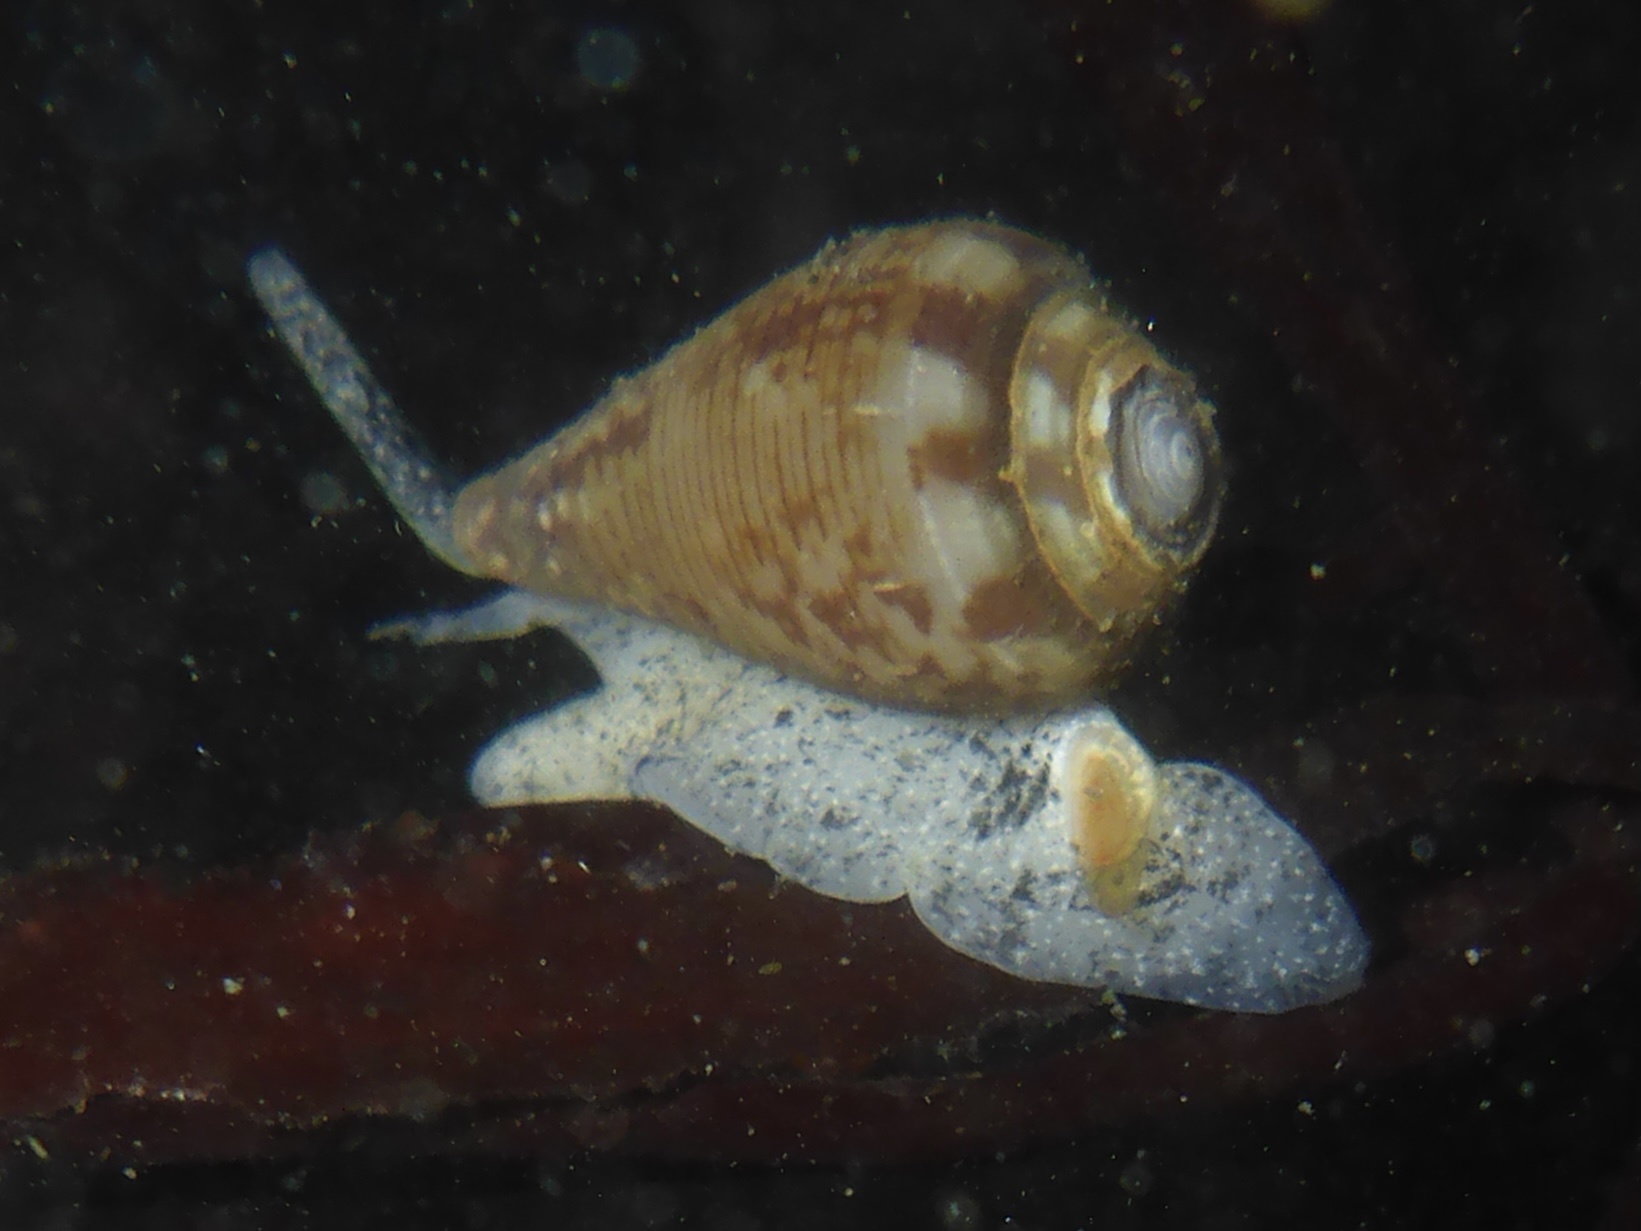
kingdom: Animalia
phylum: Mollusca
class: Gastropoda
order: Neogastropoda
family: Conidae
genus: Californiconus
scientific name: Californiconus californicus
